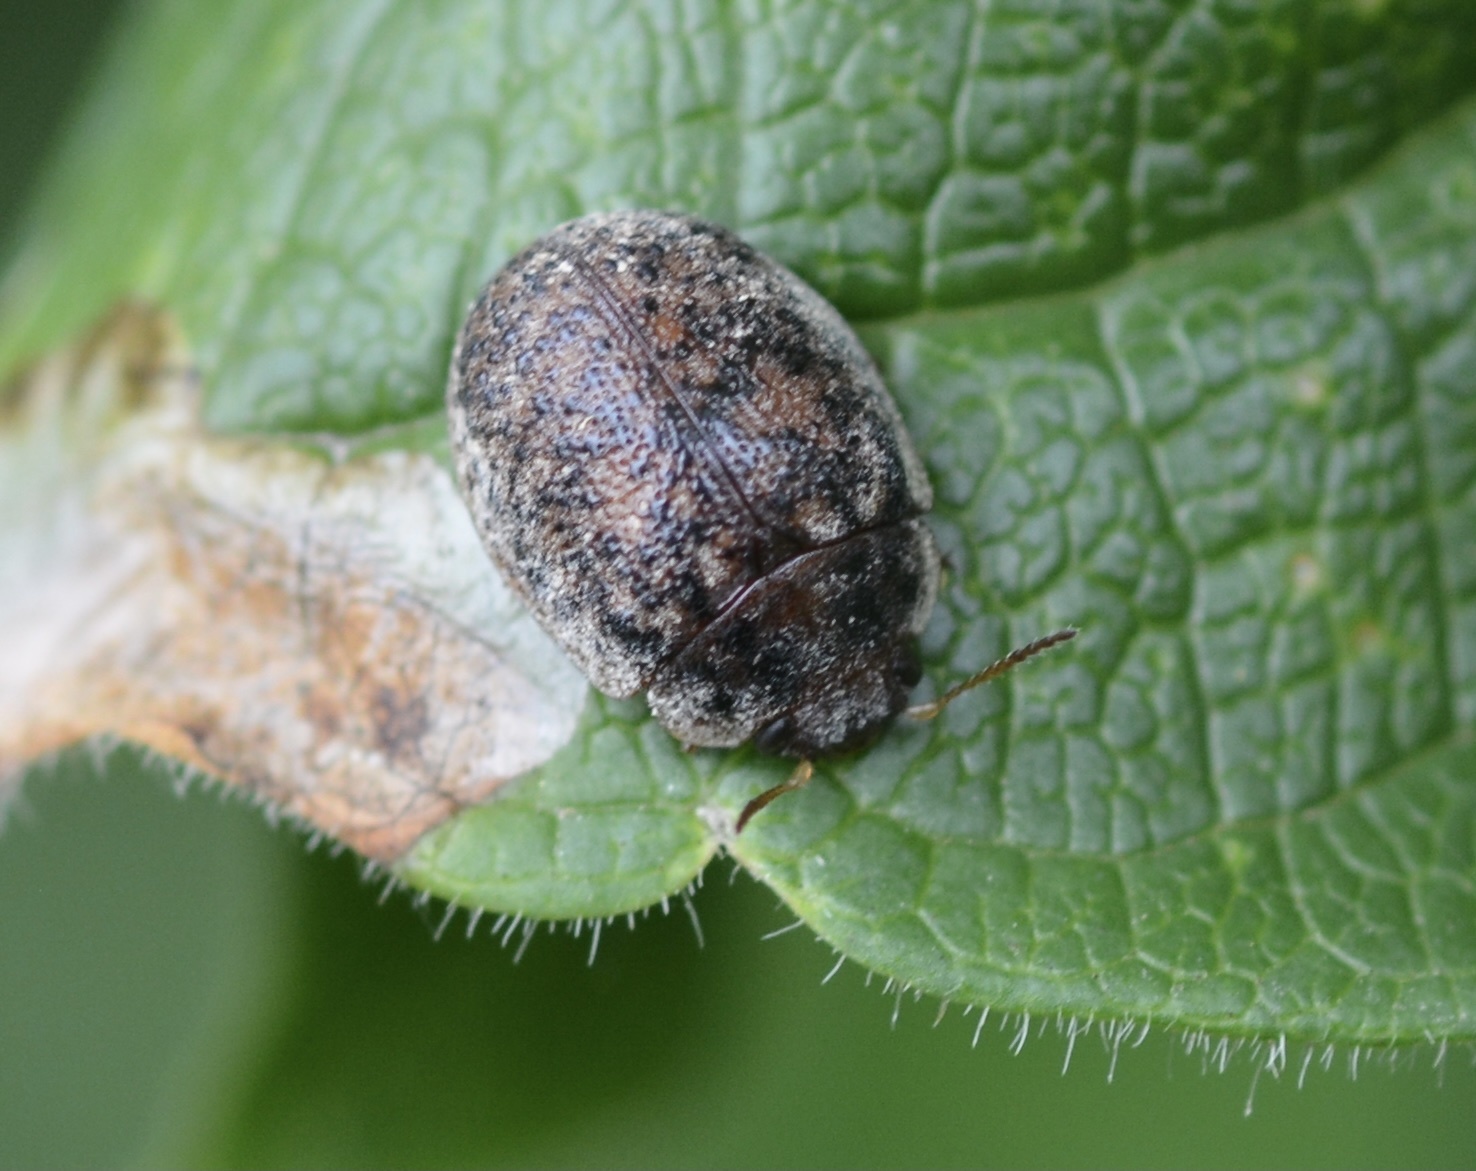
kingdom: Animalia
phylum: Arthropoda
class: Insecta
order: Coleoptera
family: Chrysomelidae
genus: Trachymela
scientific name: Trachymela sloanei
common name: Australian tortoise beetle
